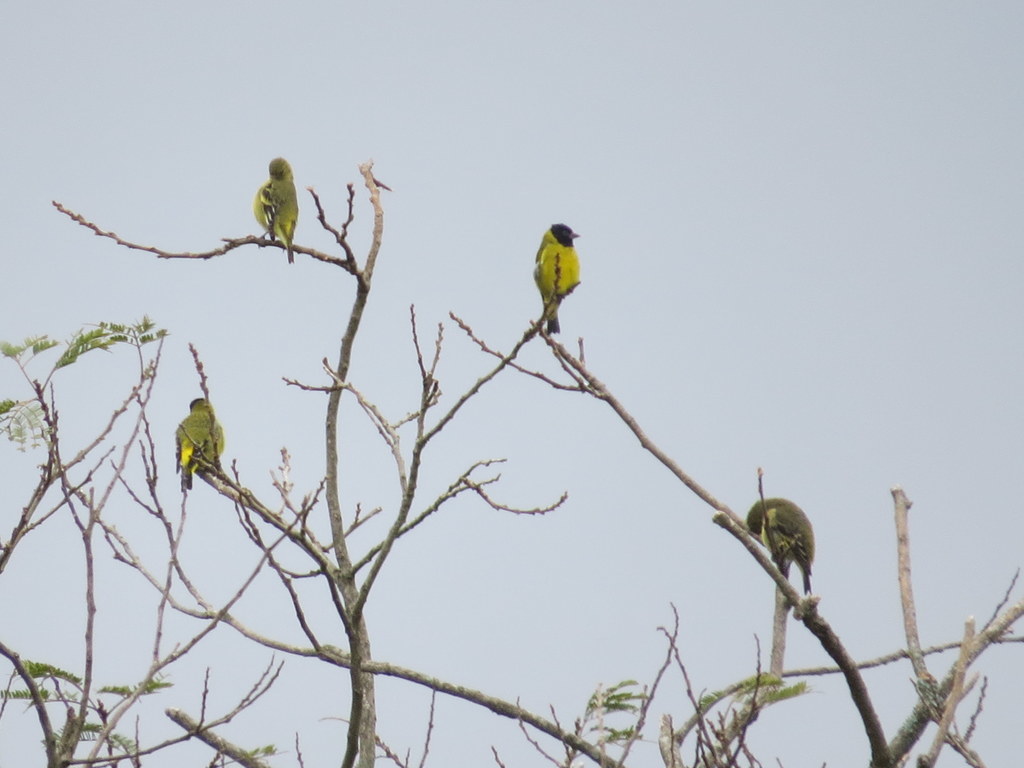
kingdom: Animalia
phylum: Chordata
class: Aves
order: Passeriformes
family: Fringillidae
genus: Spinus
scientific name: Spinus magellanicus
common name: Hooded siskin
